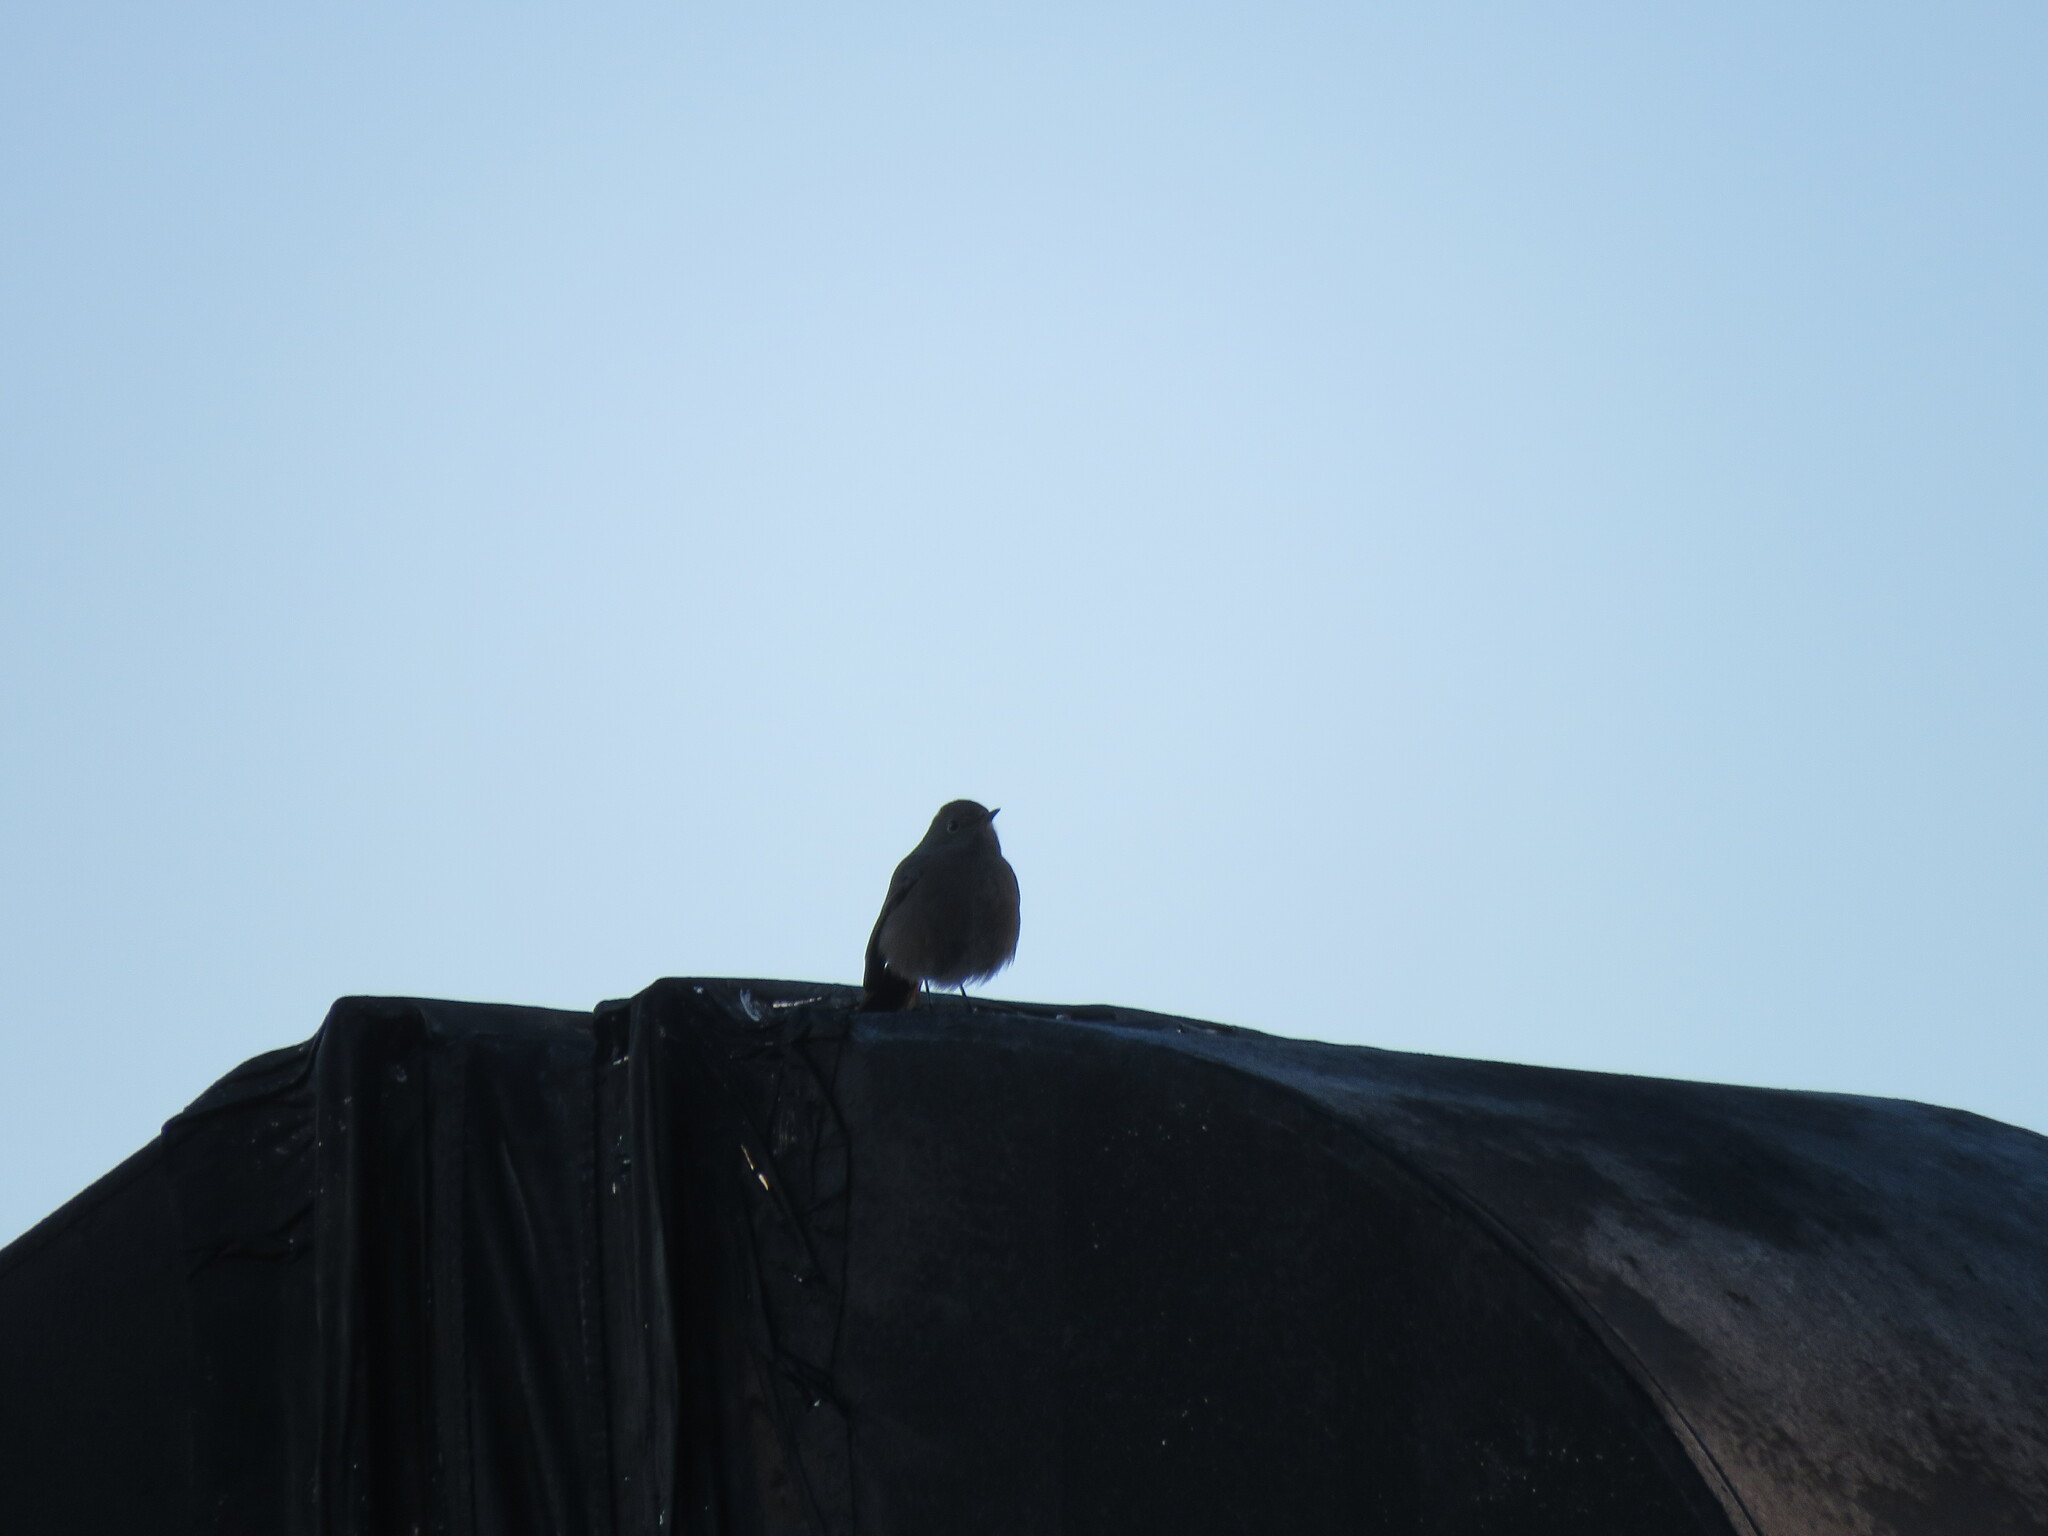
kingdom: Animalia
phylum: Chordata
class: Aves
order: Passeriformes
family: Muscicapidae
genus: Phoenicurus
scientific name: Phoenicurus ochruros
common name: Black redstart
